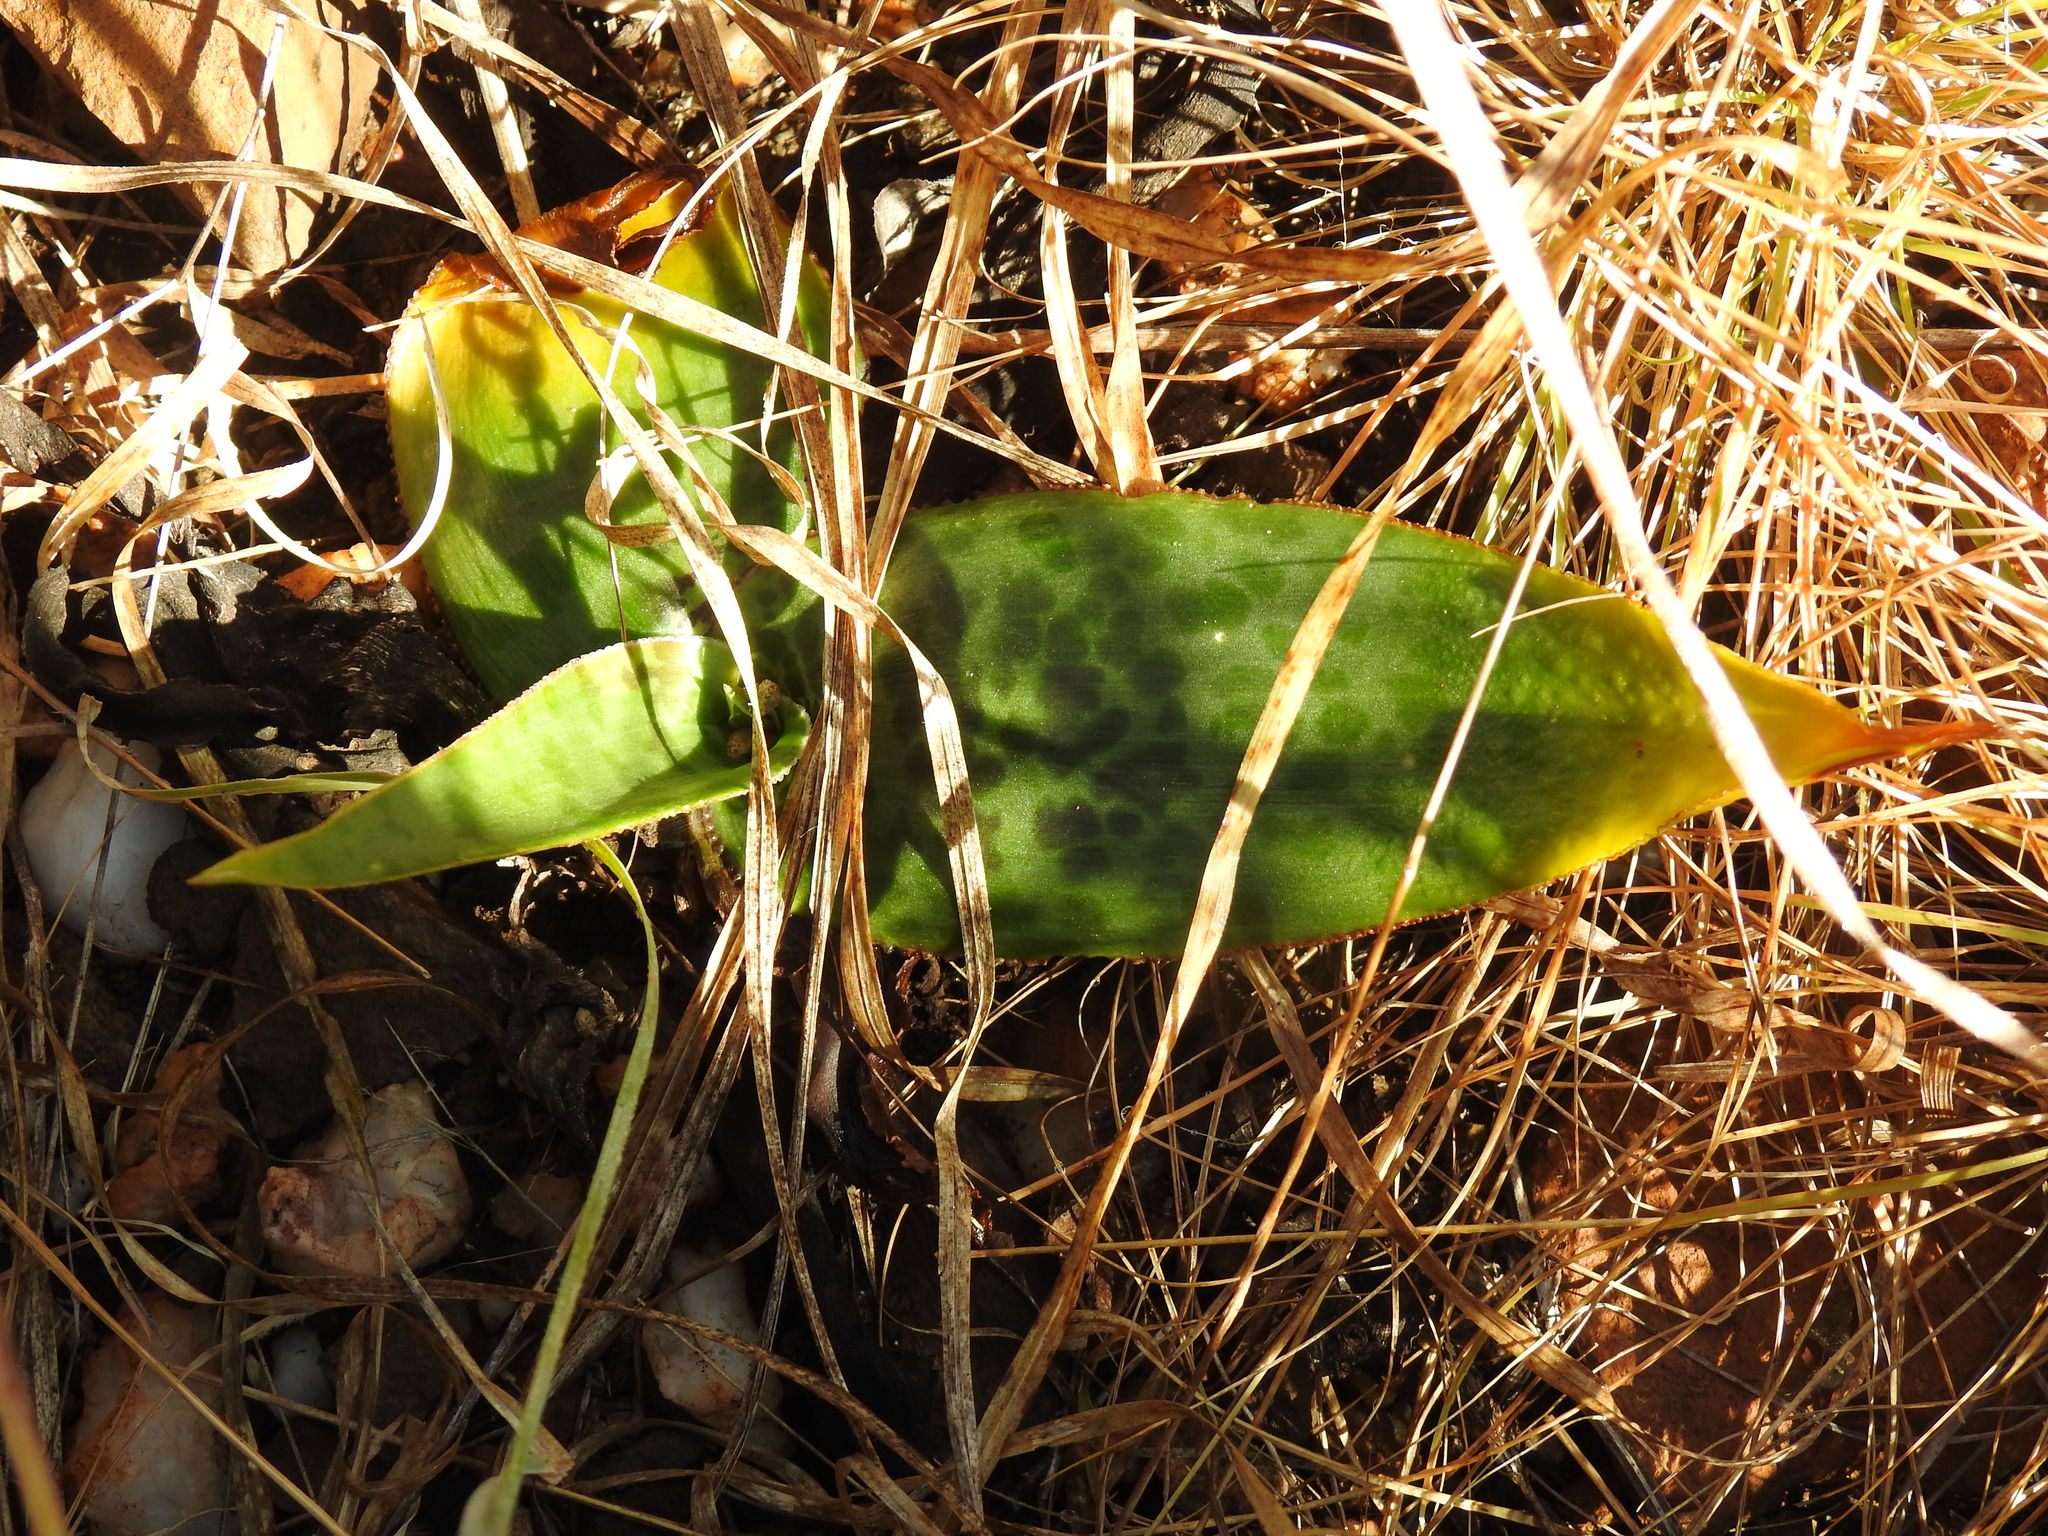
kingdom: Plantae
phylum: Tracheophyta
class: Liliopsida
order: Asparagales
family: Asparagaceae
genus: Ledebouria
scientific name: Ledebouria luteola
